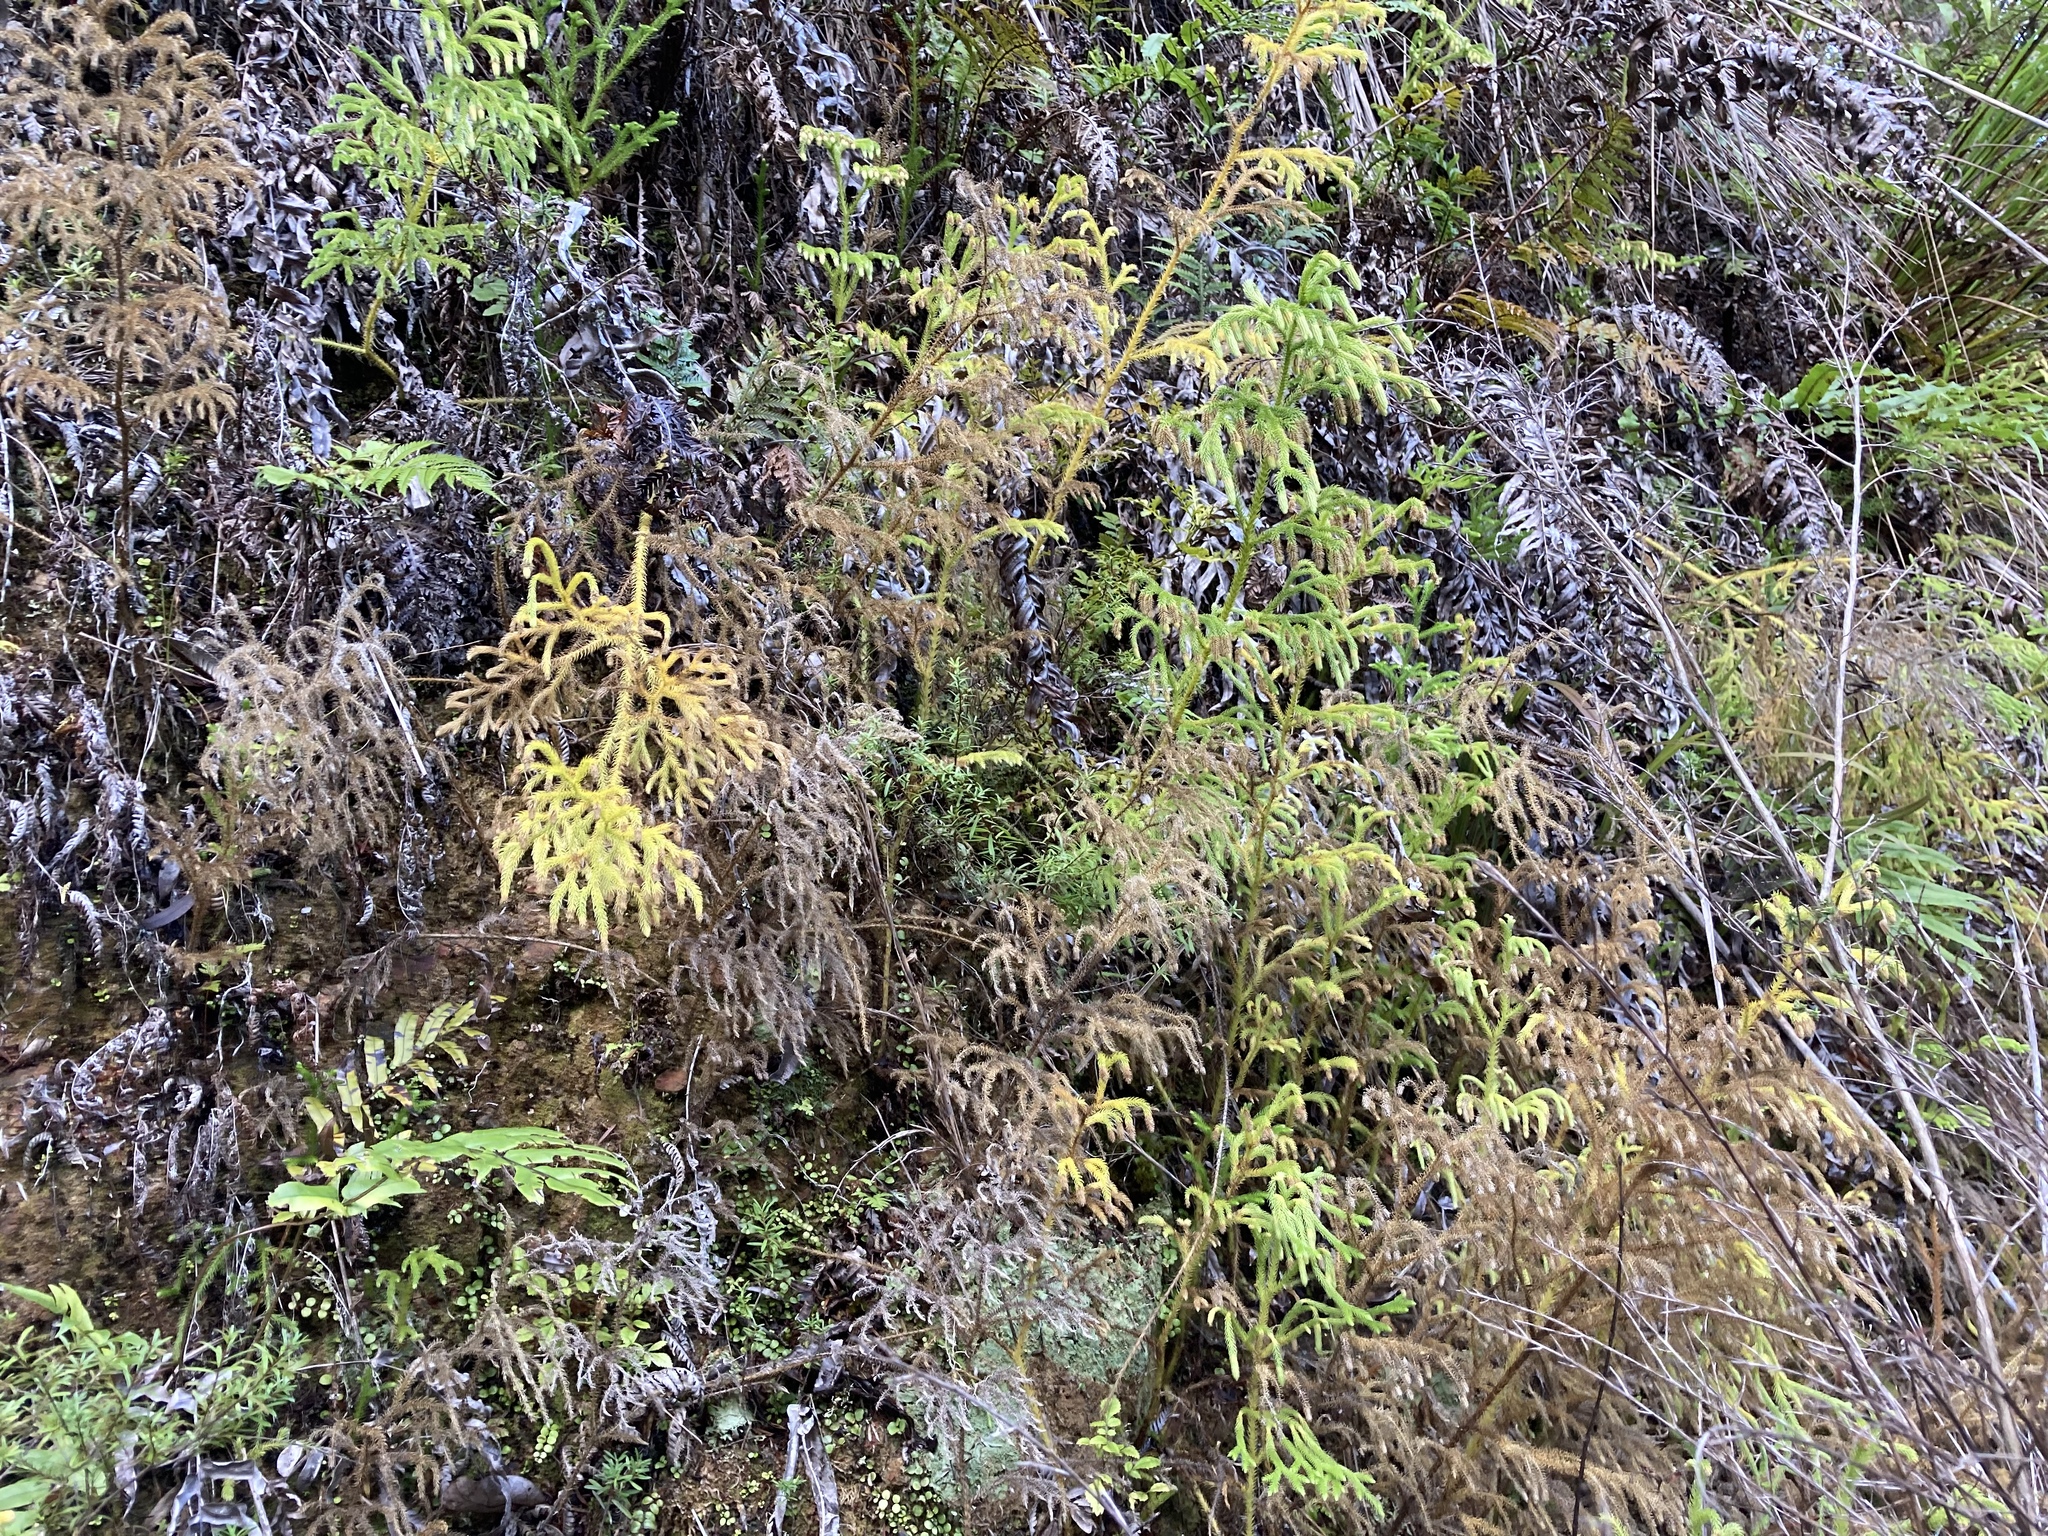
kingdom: Plantae
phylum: Tracheophyta
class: Lycopodiopsida
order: Lycopodiales
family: Lycopodiaceae
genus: Palhinhaea
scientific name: Palhinhaea cernua
